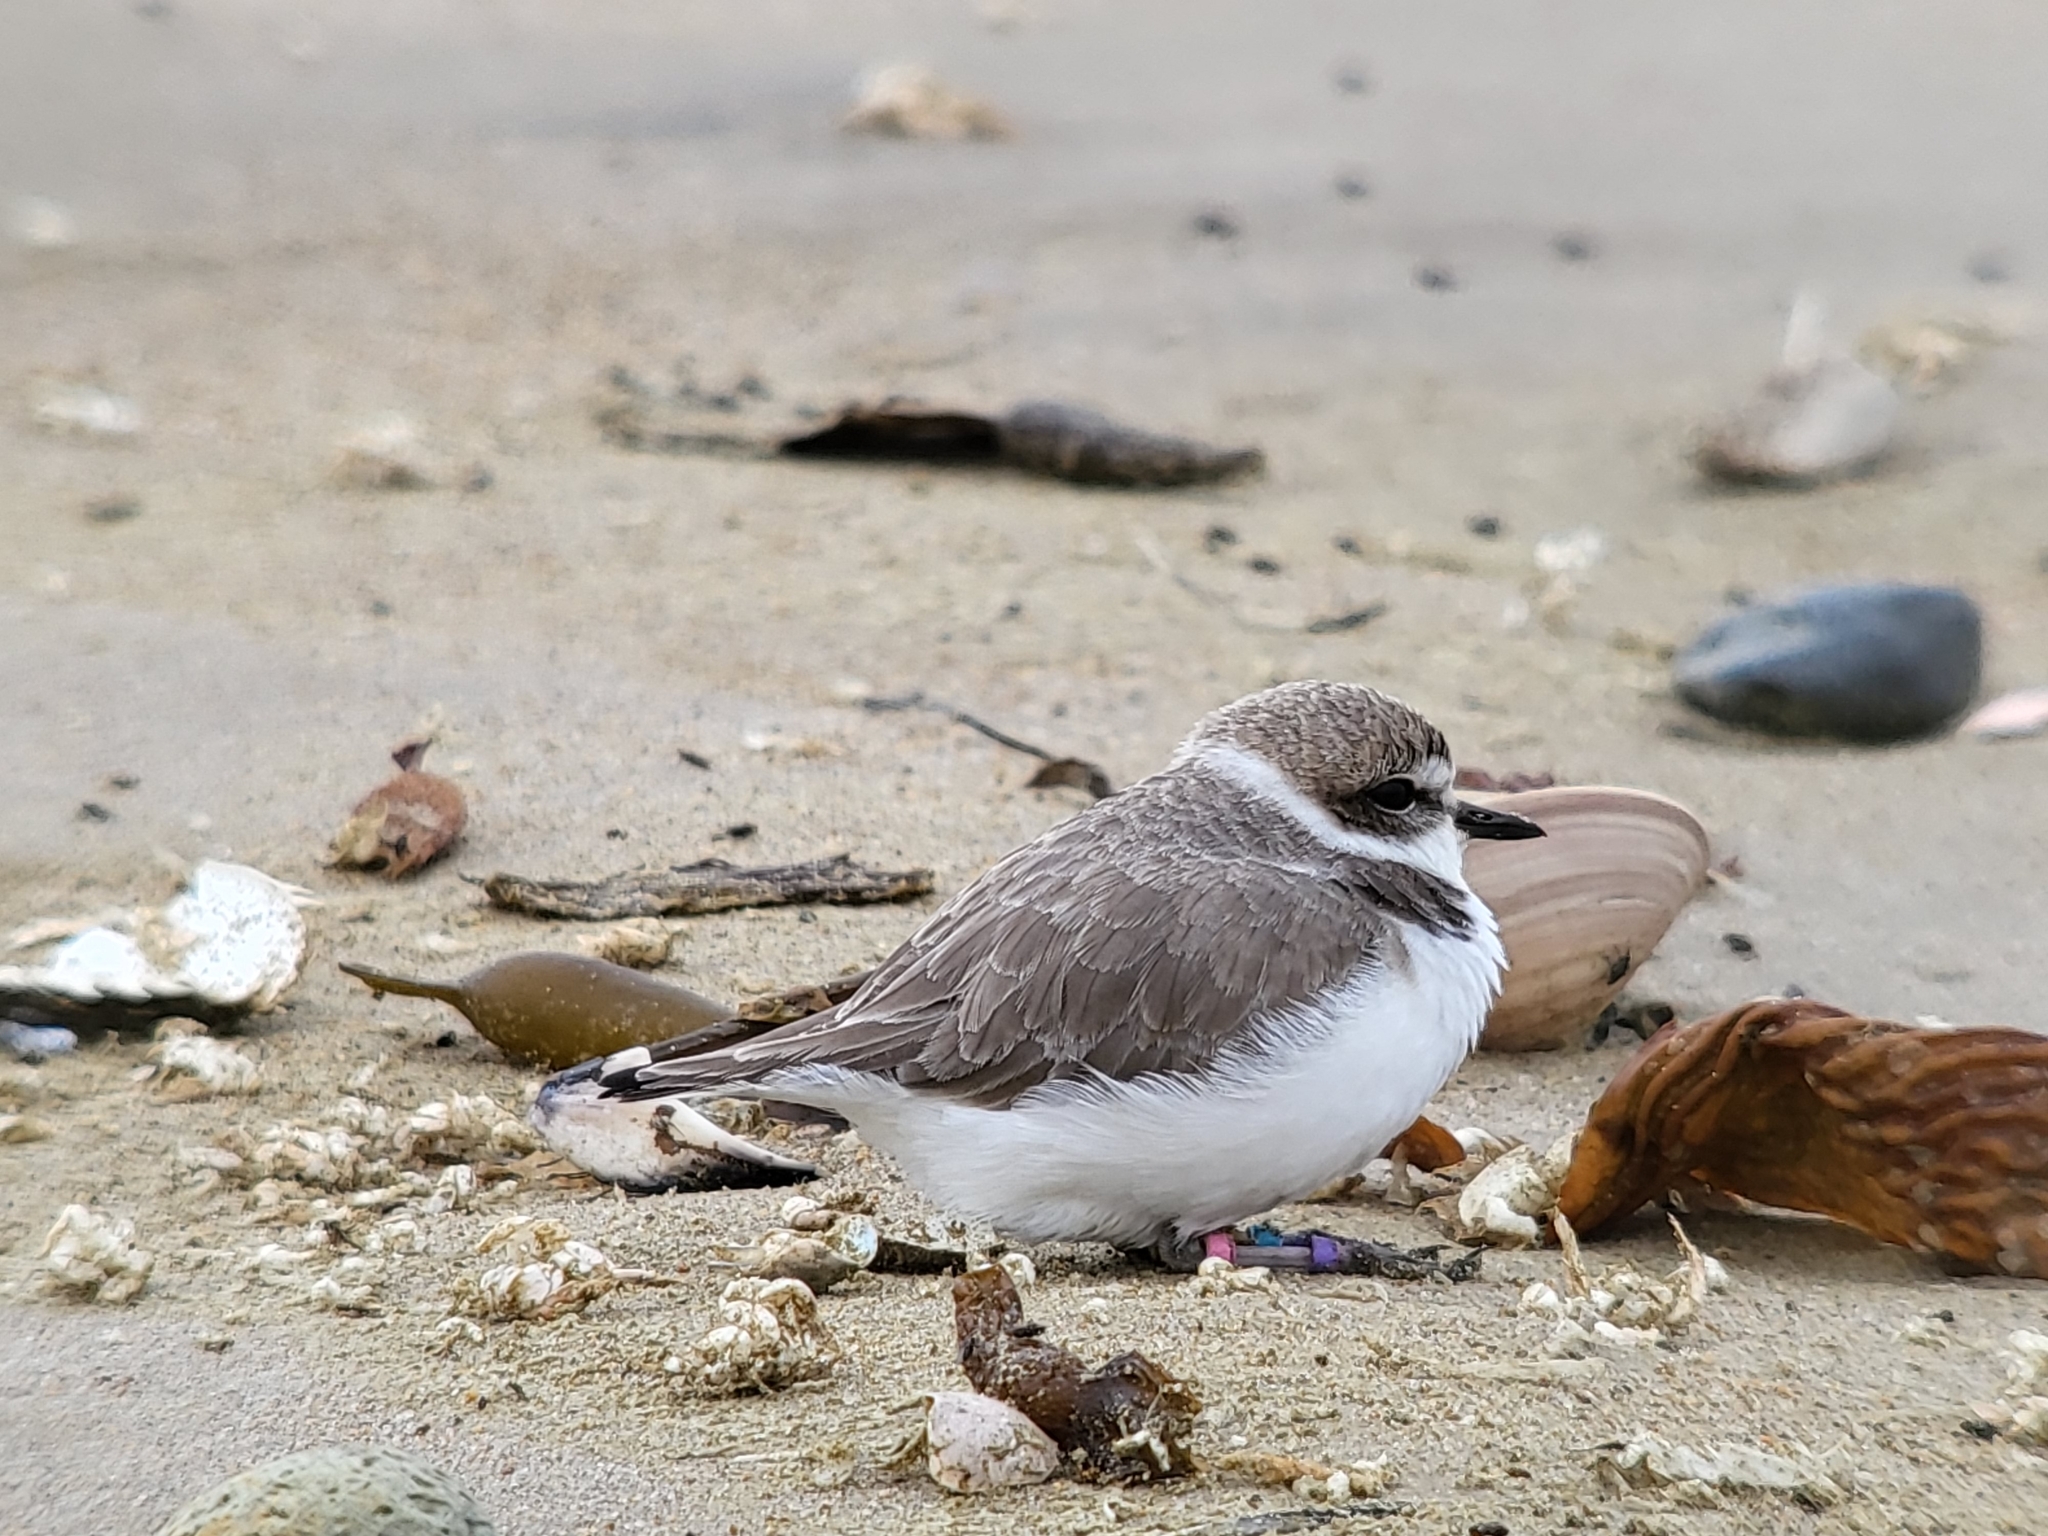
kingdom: Animalia
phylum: Chordata
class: Aves
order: Charadriiformes
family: Charadriidae
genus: Anarhynchus
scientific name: Anarhynchus
